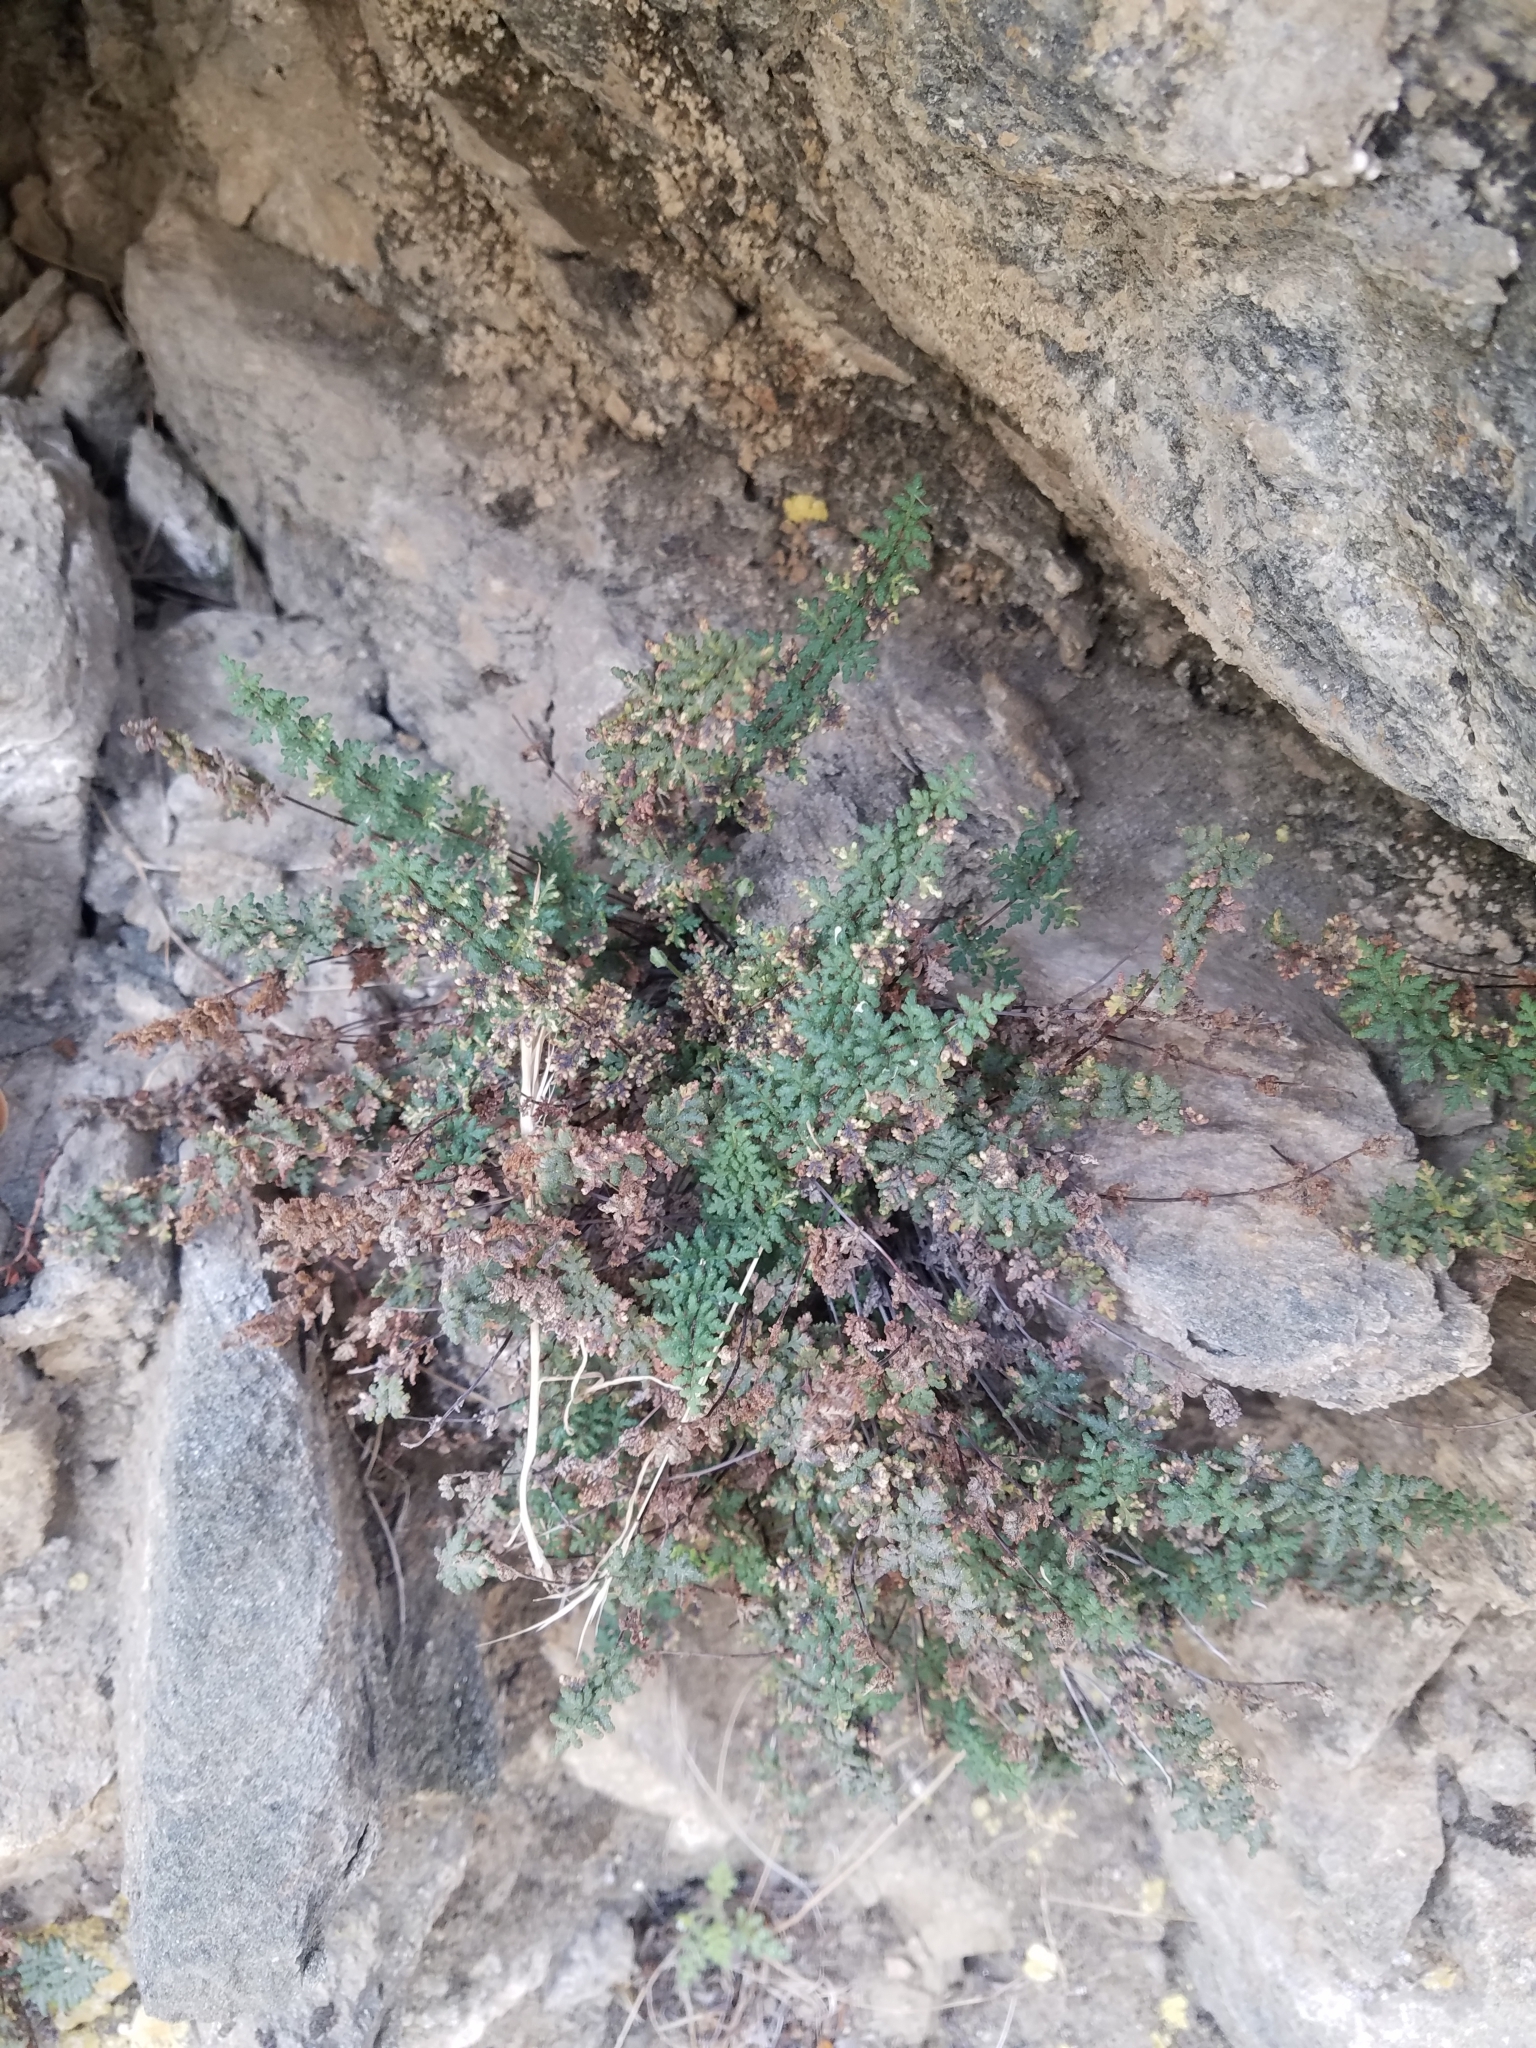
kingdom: Plantae
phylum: Tracheophyta
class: Polypodiopsida
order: Polypodiales
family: Pteridaceae
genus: Myriopteris
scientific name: Myriopteris viscida
